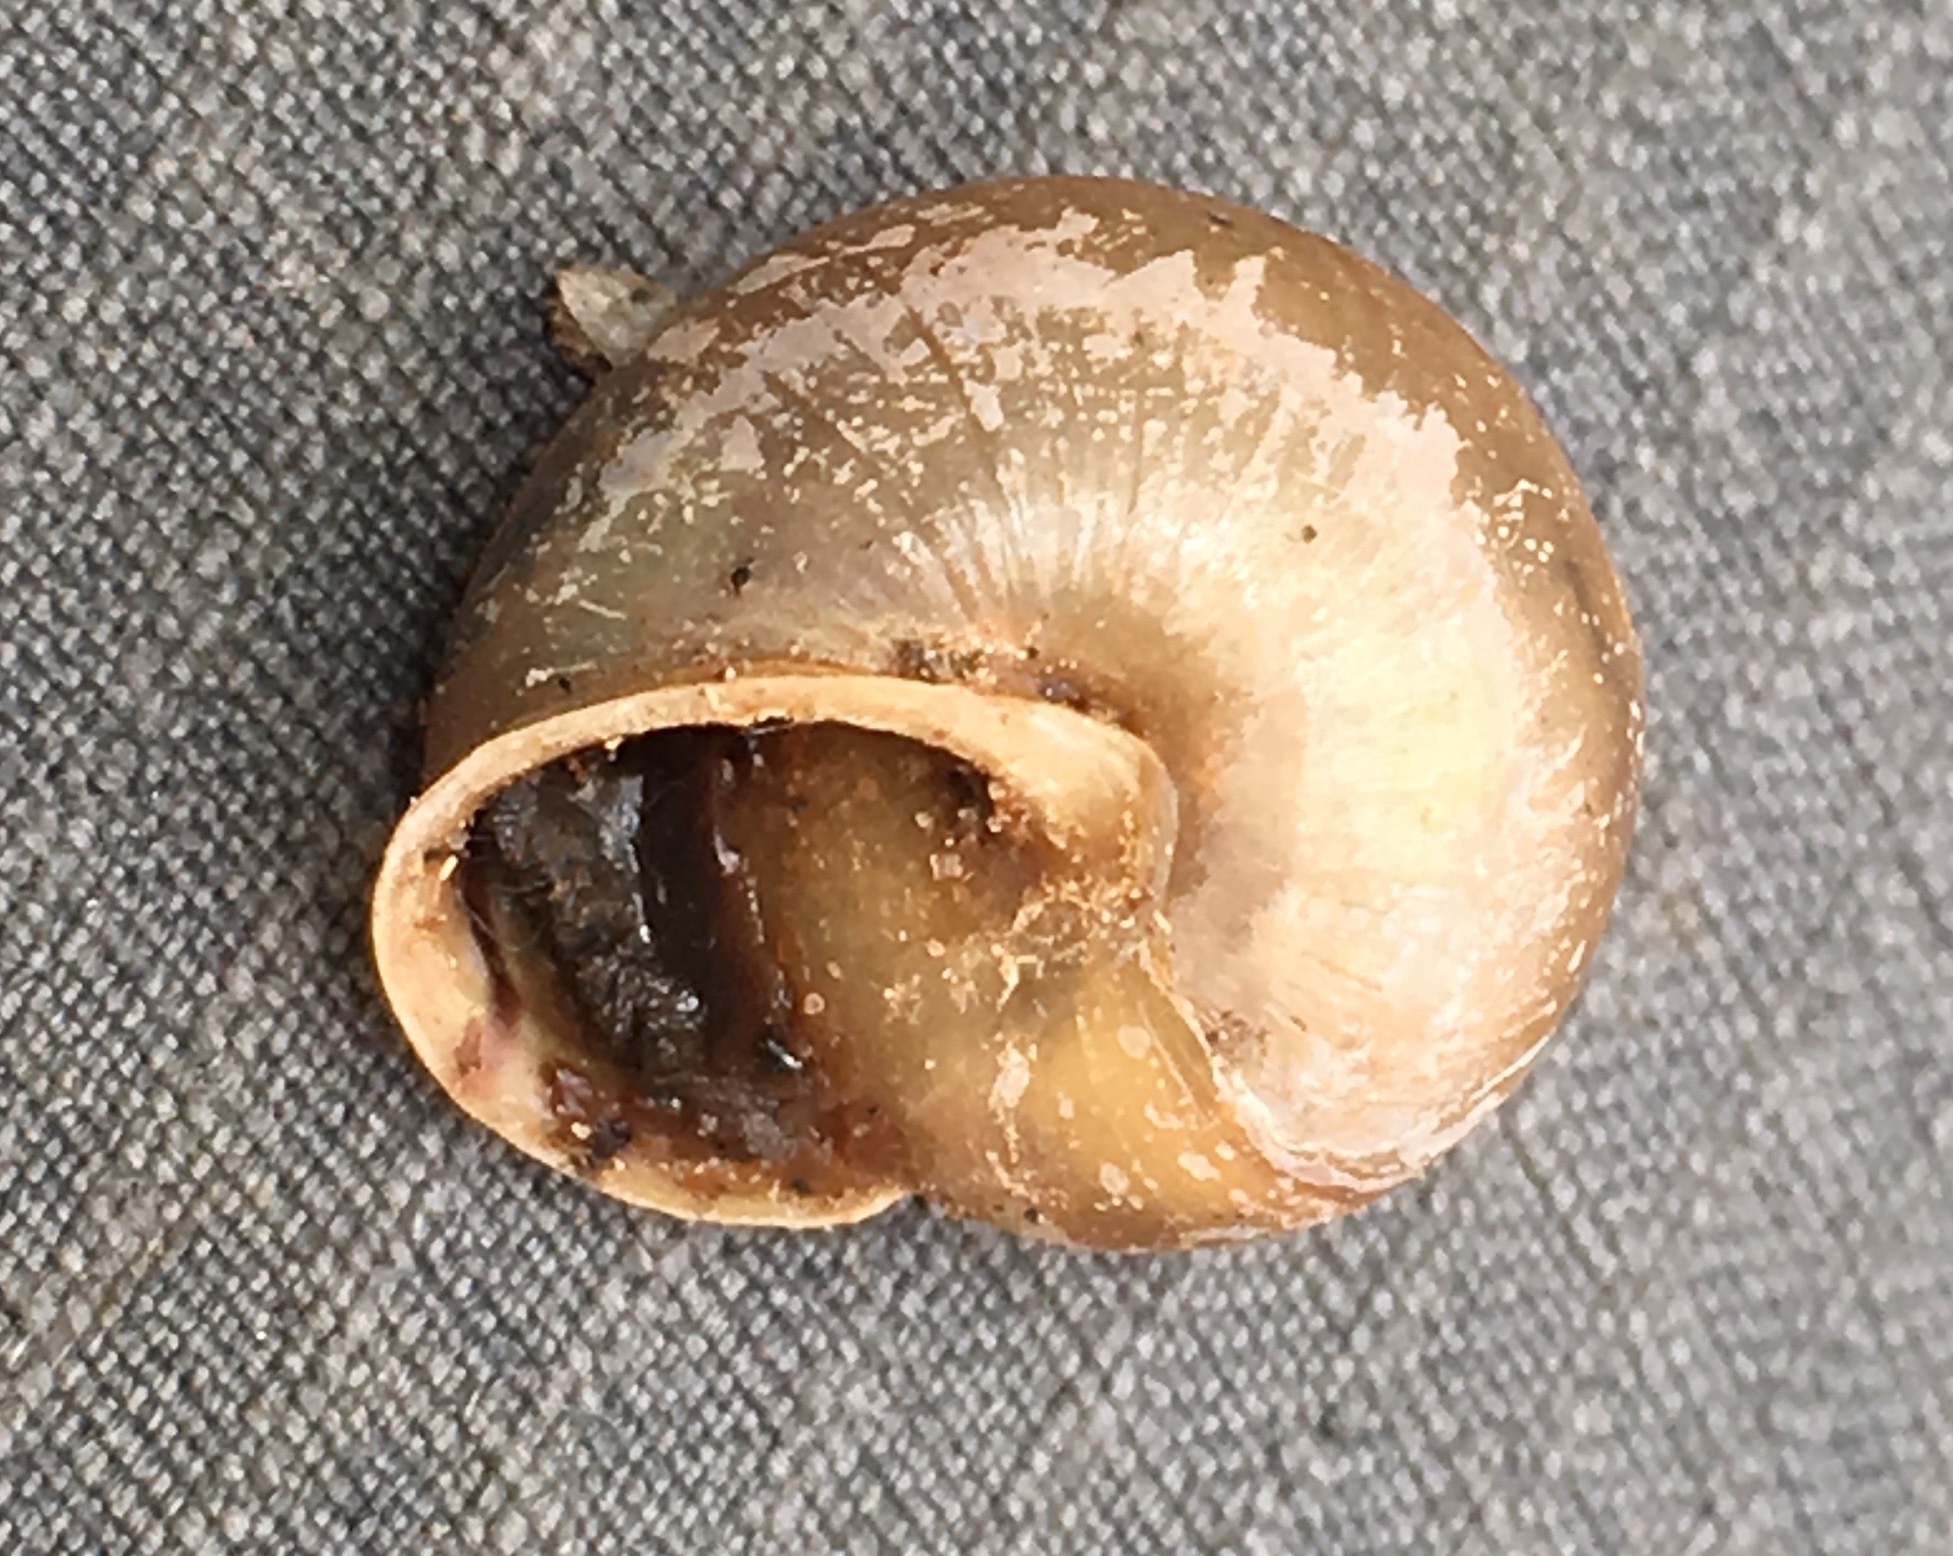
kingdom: Animalia
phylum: Mollusca
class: Gastropoda
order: Stylommatophora
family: Xanthonychidae
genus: Micrarionta
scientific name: Micrarionta gabbii
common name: Gabb's snail
